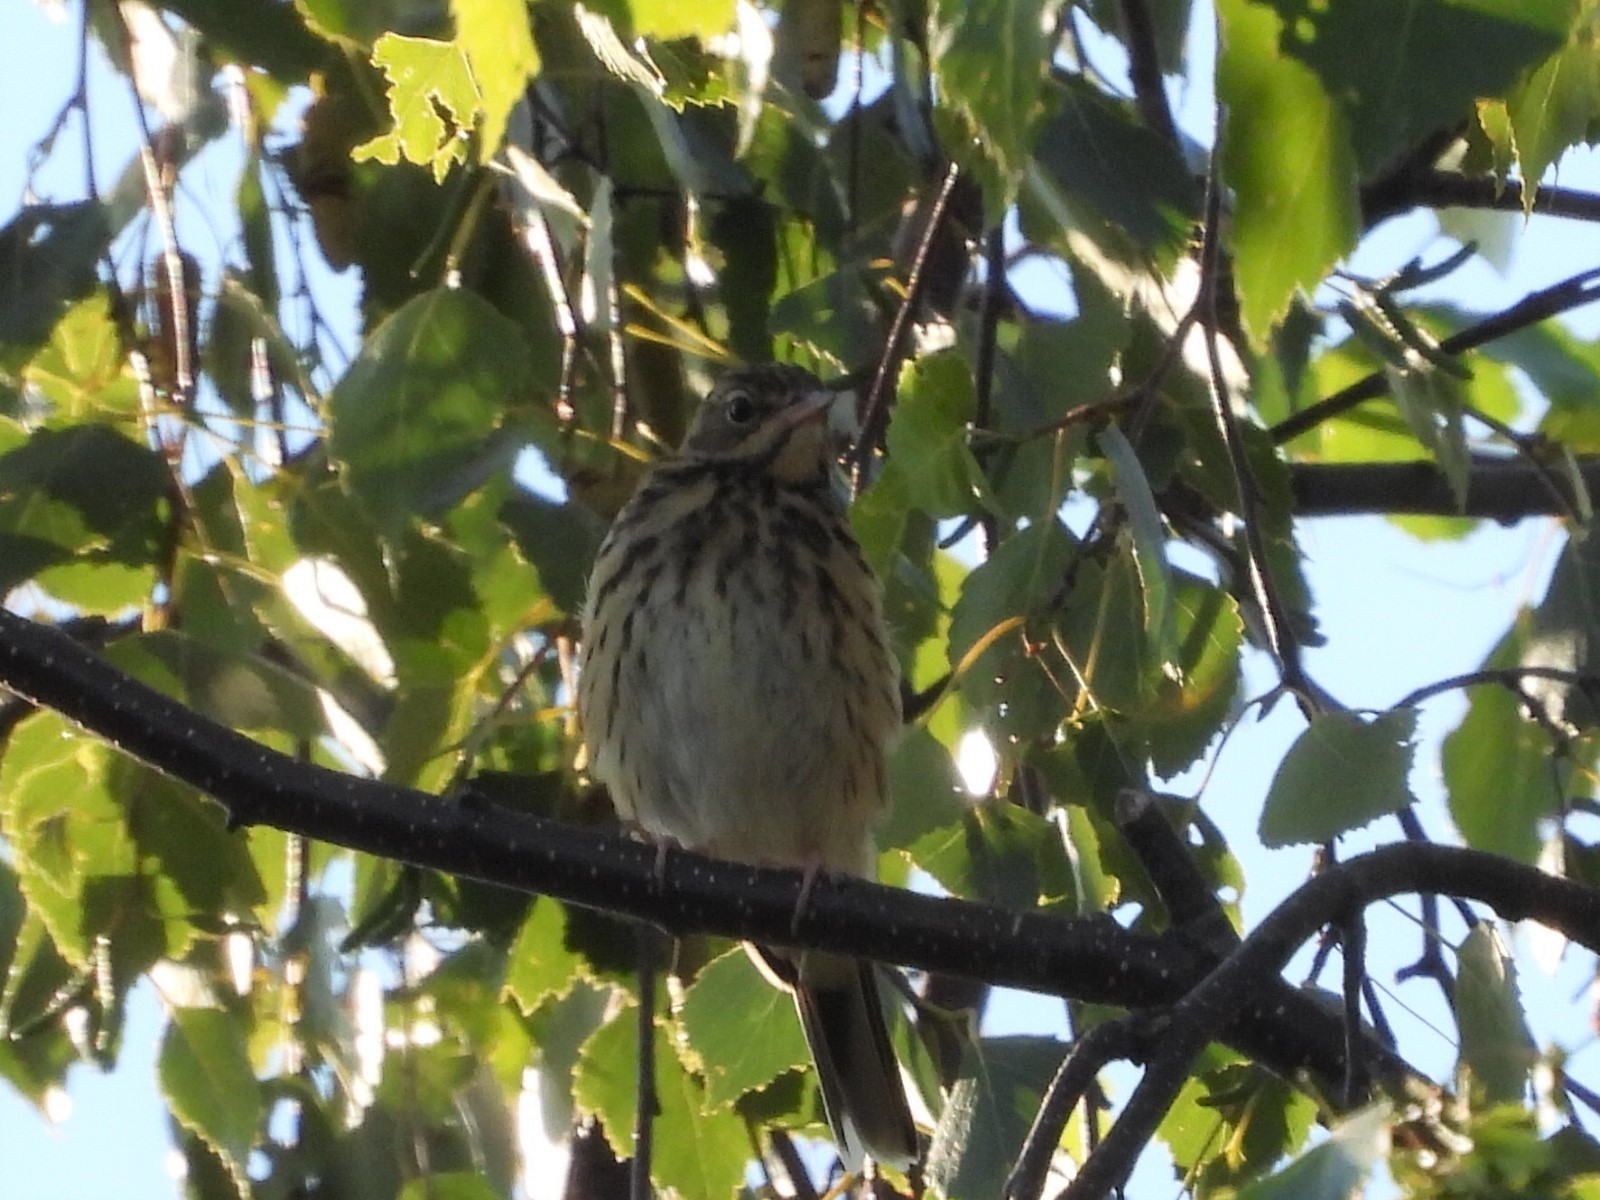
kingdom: Animalia
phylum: Chordata
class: Aves
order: Passeriformes
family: Motacillidae
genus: Anthus
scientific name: Anthus trivialis
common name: Tree pipit
